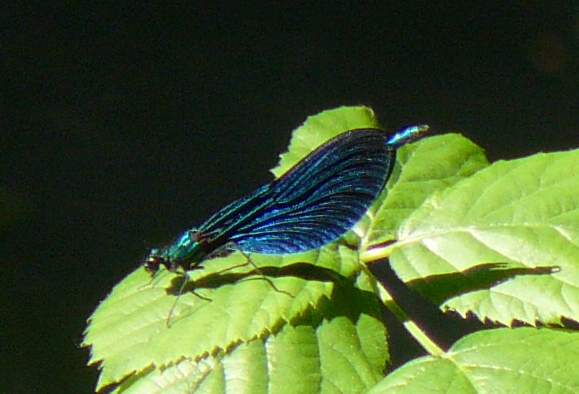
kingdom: Animalia
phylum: Arthropoda
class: Insecta
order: Odonata
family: Calopterygidae
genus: Calopteryx
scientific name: Calopteryx virgo
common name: Beautiful demoiselle
